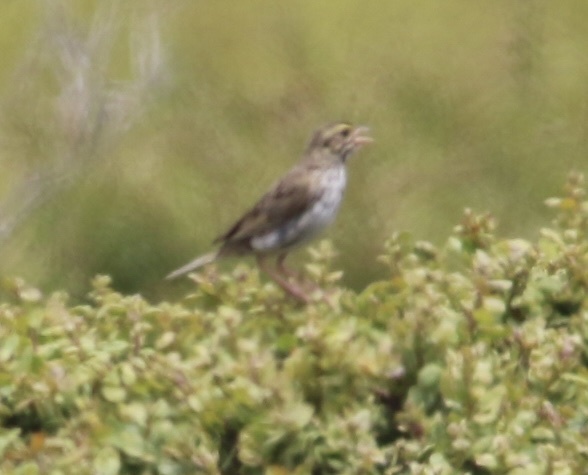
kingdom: Animalia
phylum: Chordata
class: Aves
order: Passeriformes
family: Passerellidae
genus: Passerculus
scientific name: Passerculus sandwichensis
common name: Savannah sparrow
